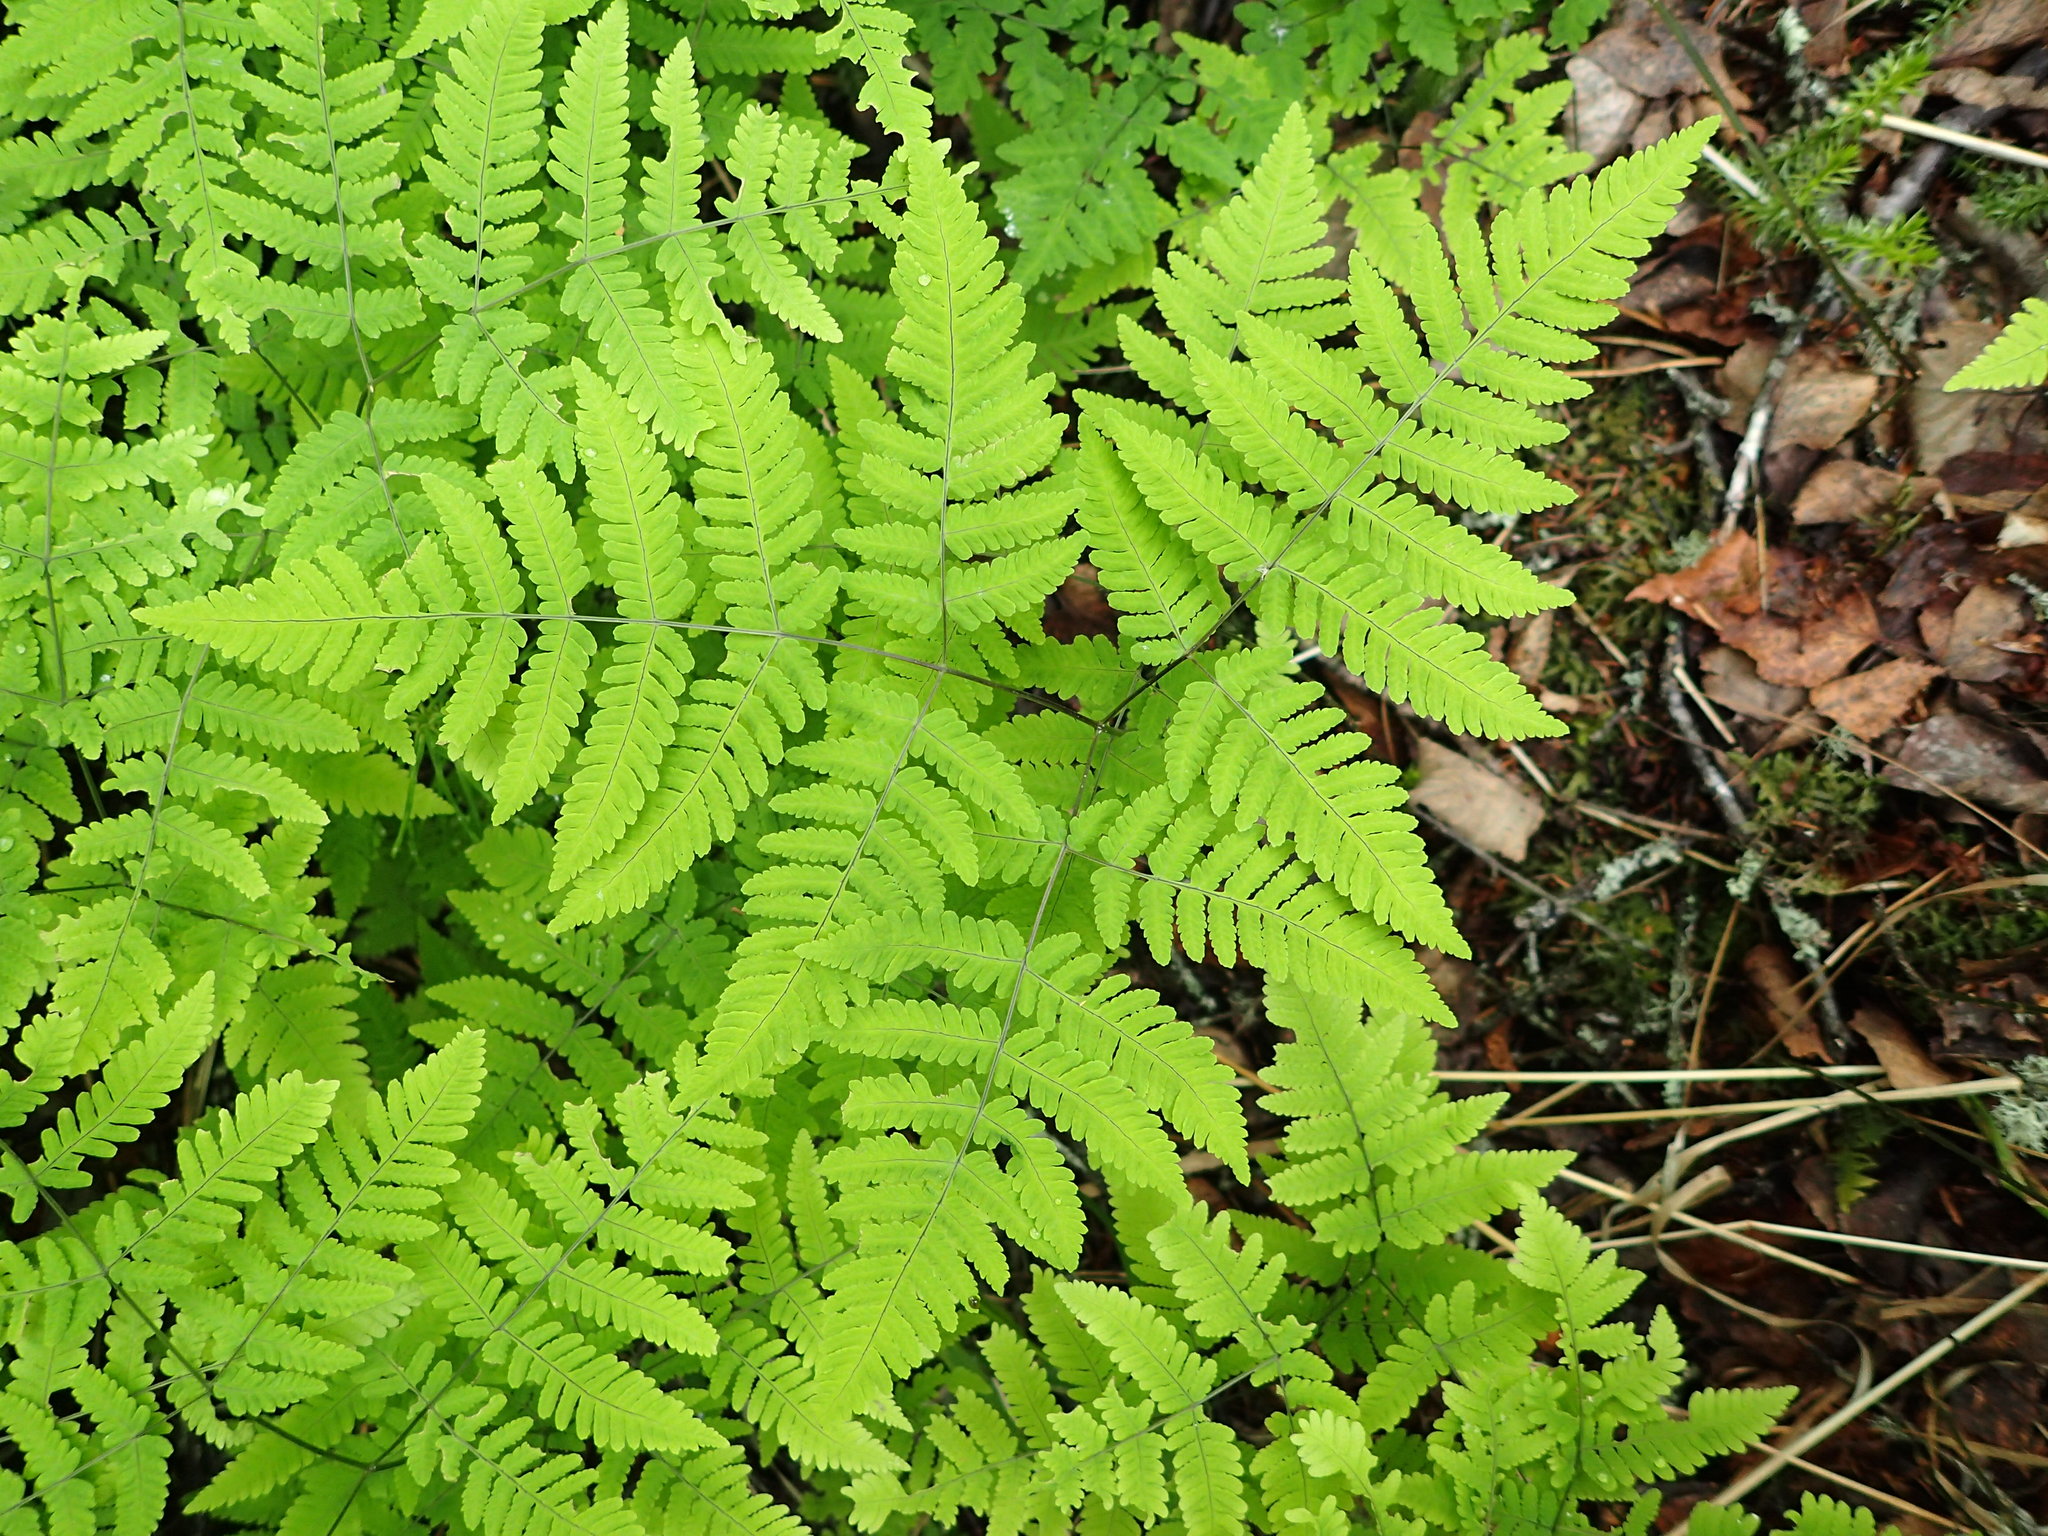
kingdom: Plantae
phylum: Tracheophyta
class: Polypodiopsida
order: Polypodiales
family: Cystopteridaceae
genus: Gymnocarpium
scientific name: Gymnocarpium dryopteris
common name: Oak fern
